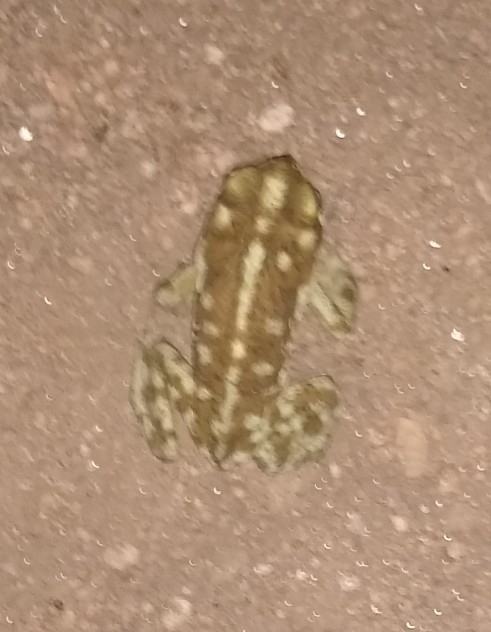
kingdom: Animalia
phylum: Chordata
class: Amphibia
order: Anura
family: Bufonidae
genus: Rhinella
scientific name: Rhinella arenarum
